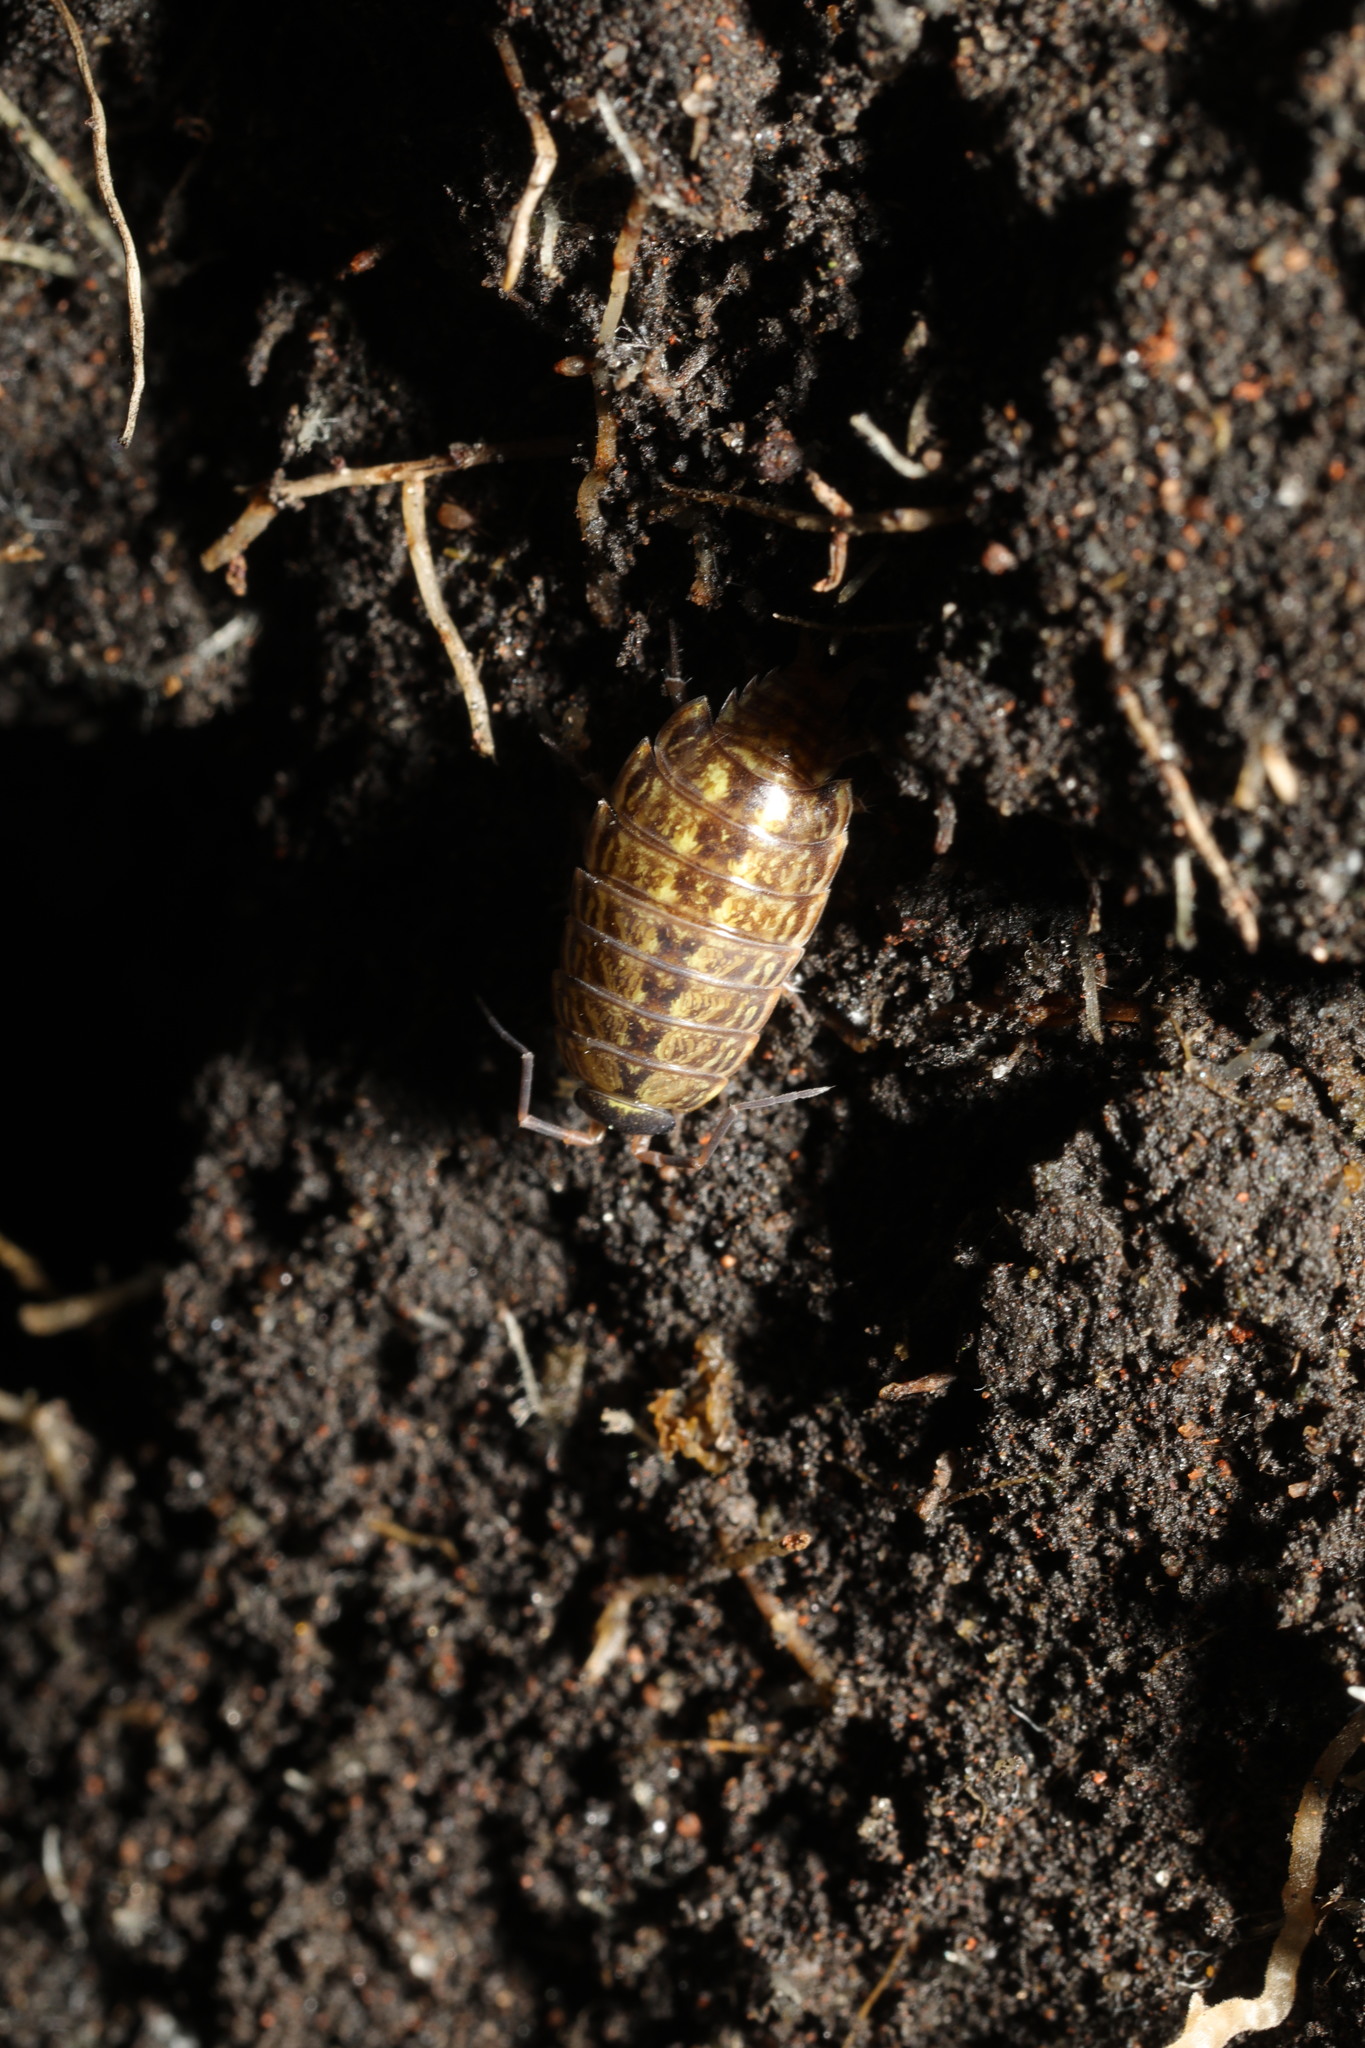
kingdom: Animalia
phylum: Arthropoda
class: Malacostraca
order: Isopoda
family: Philosciidae
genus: Philoscia
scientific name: Philoscia muscorum
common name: Common striped woodlouse
